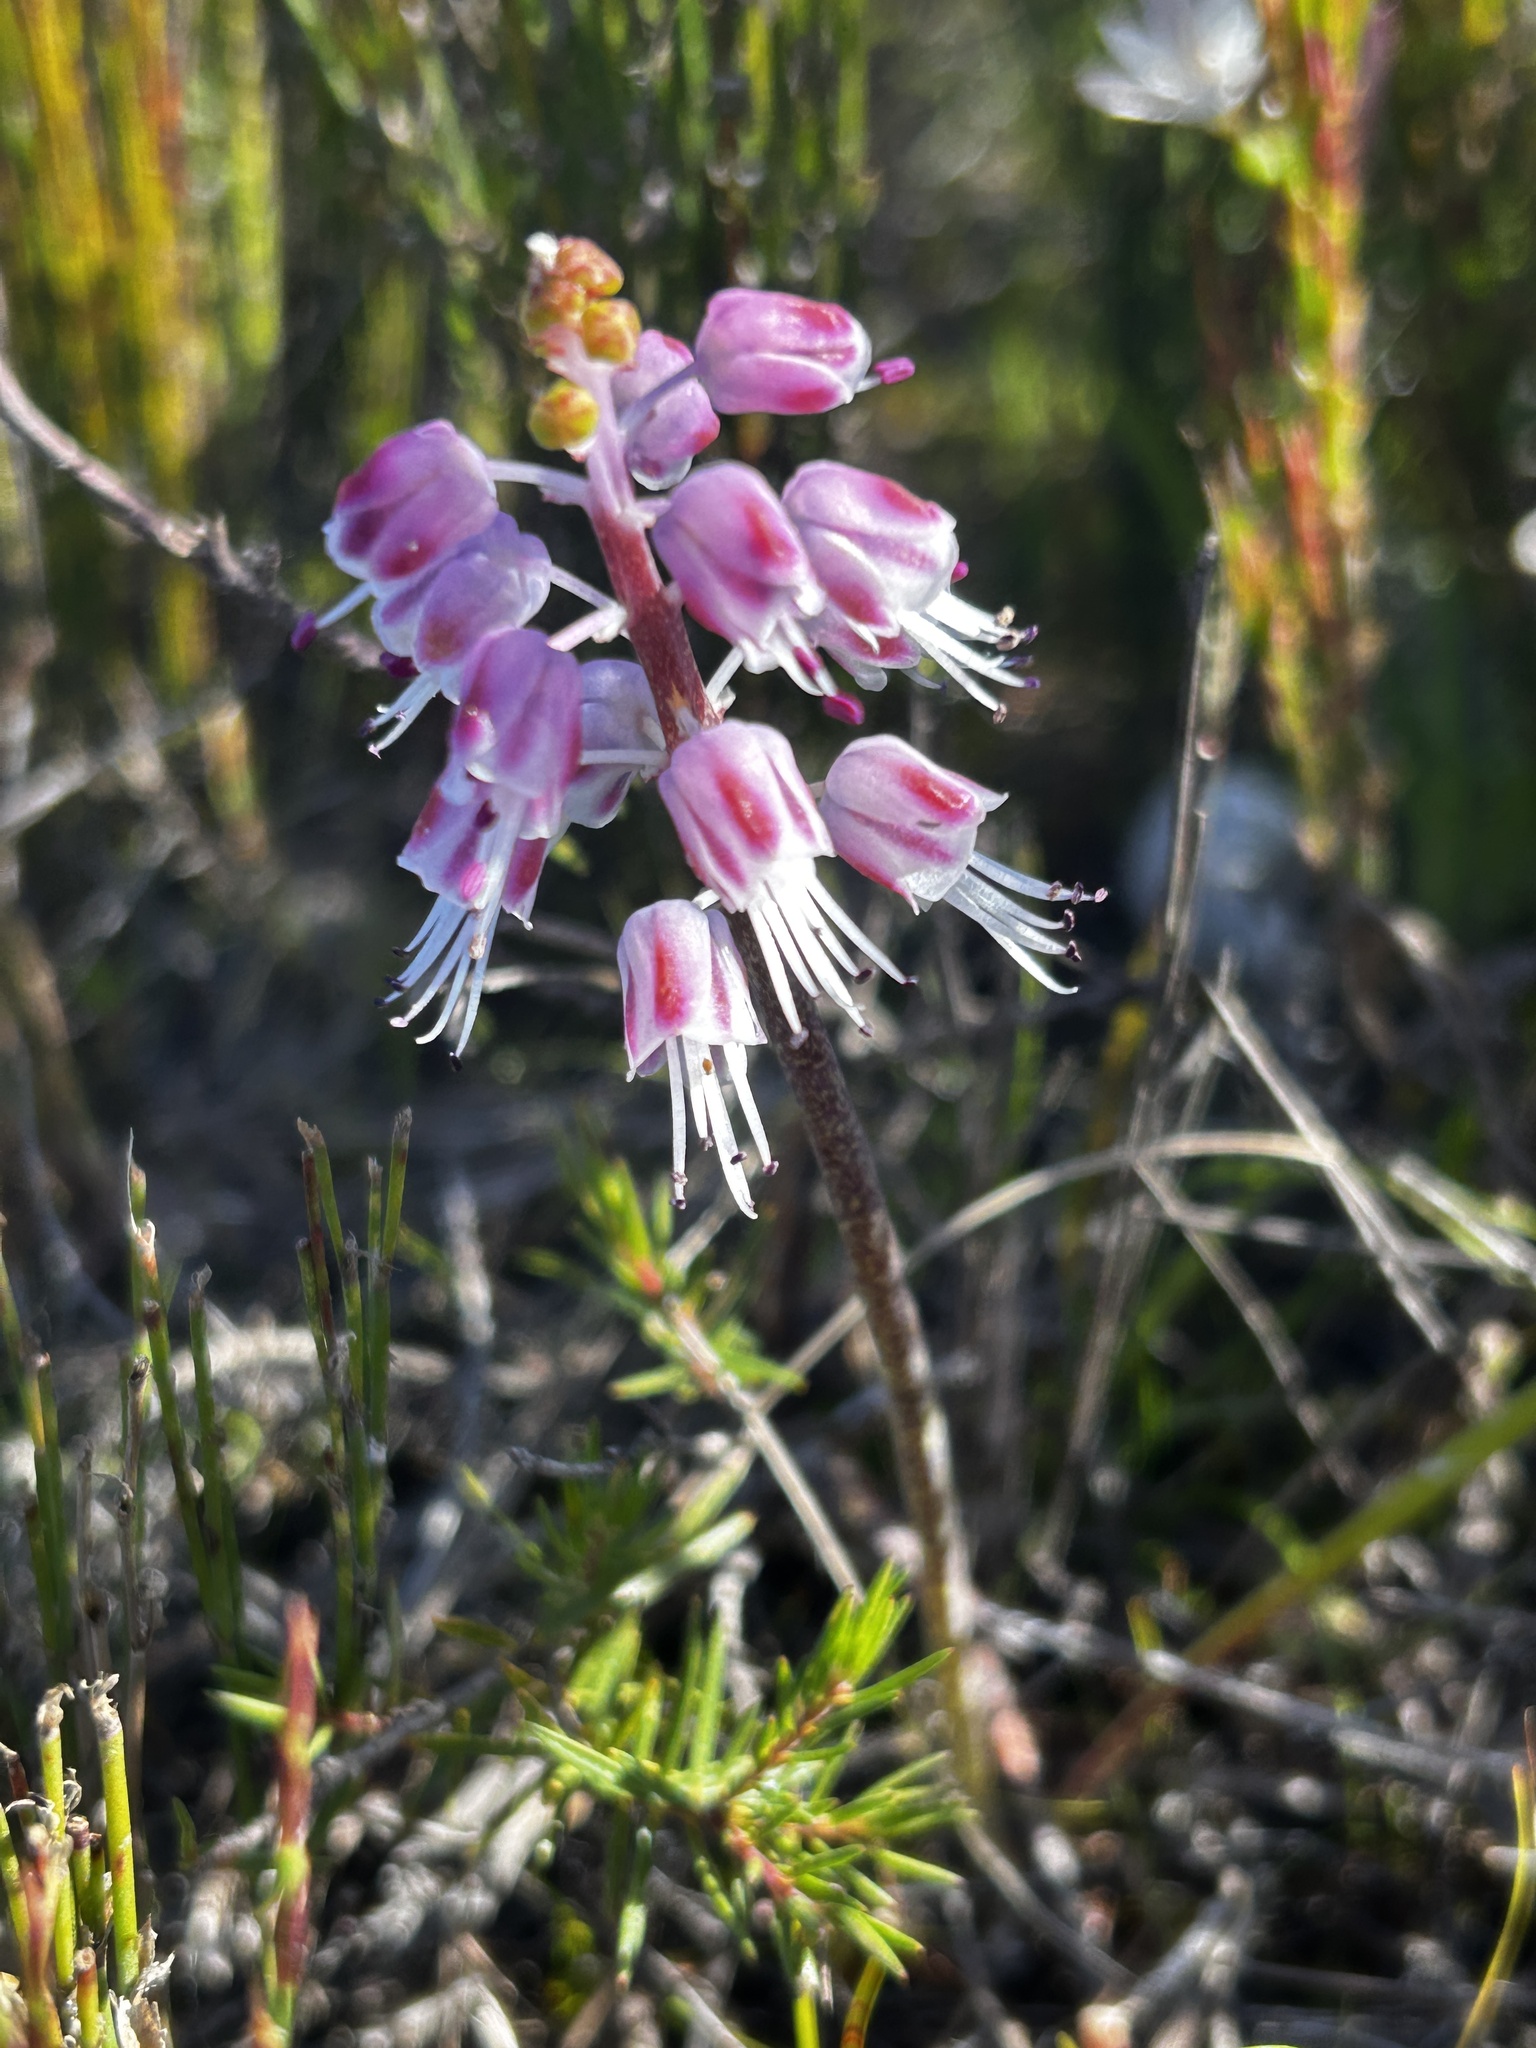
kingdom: Plantae
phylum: Tracheophyta
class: Liliopsida
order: Asparagales
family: Asparagaceae
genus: Lachenalia
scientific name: Lachenalia juncifolia
